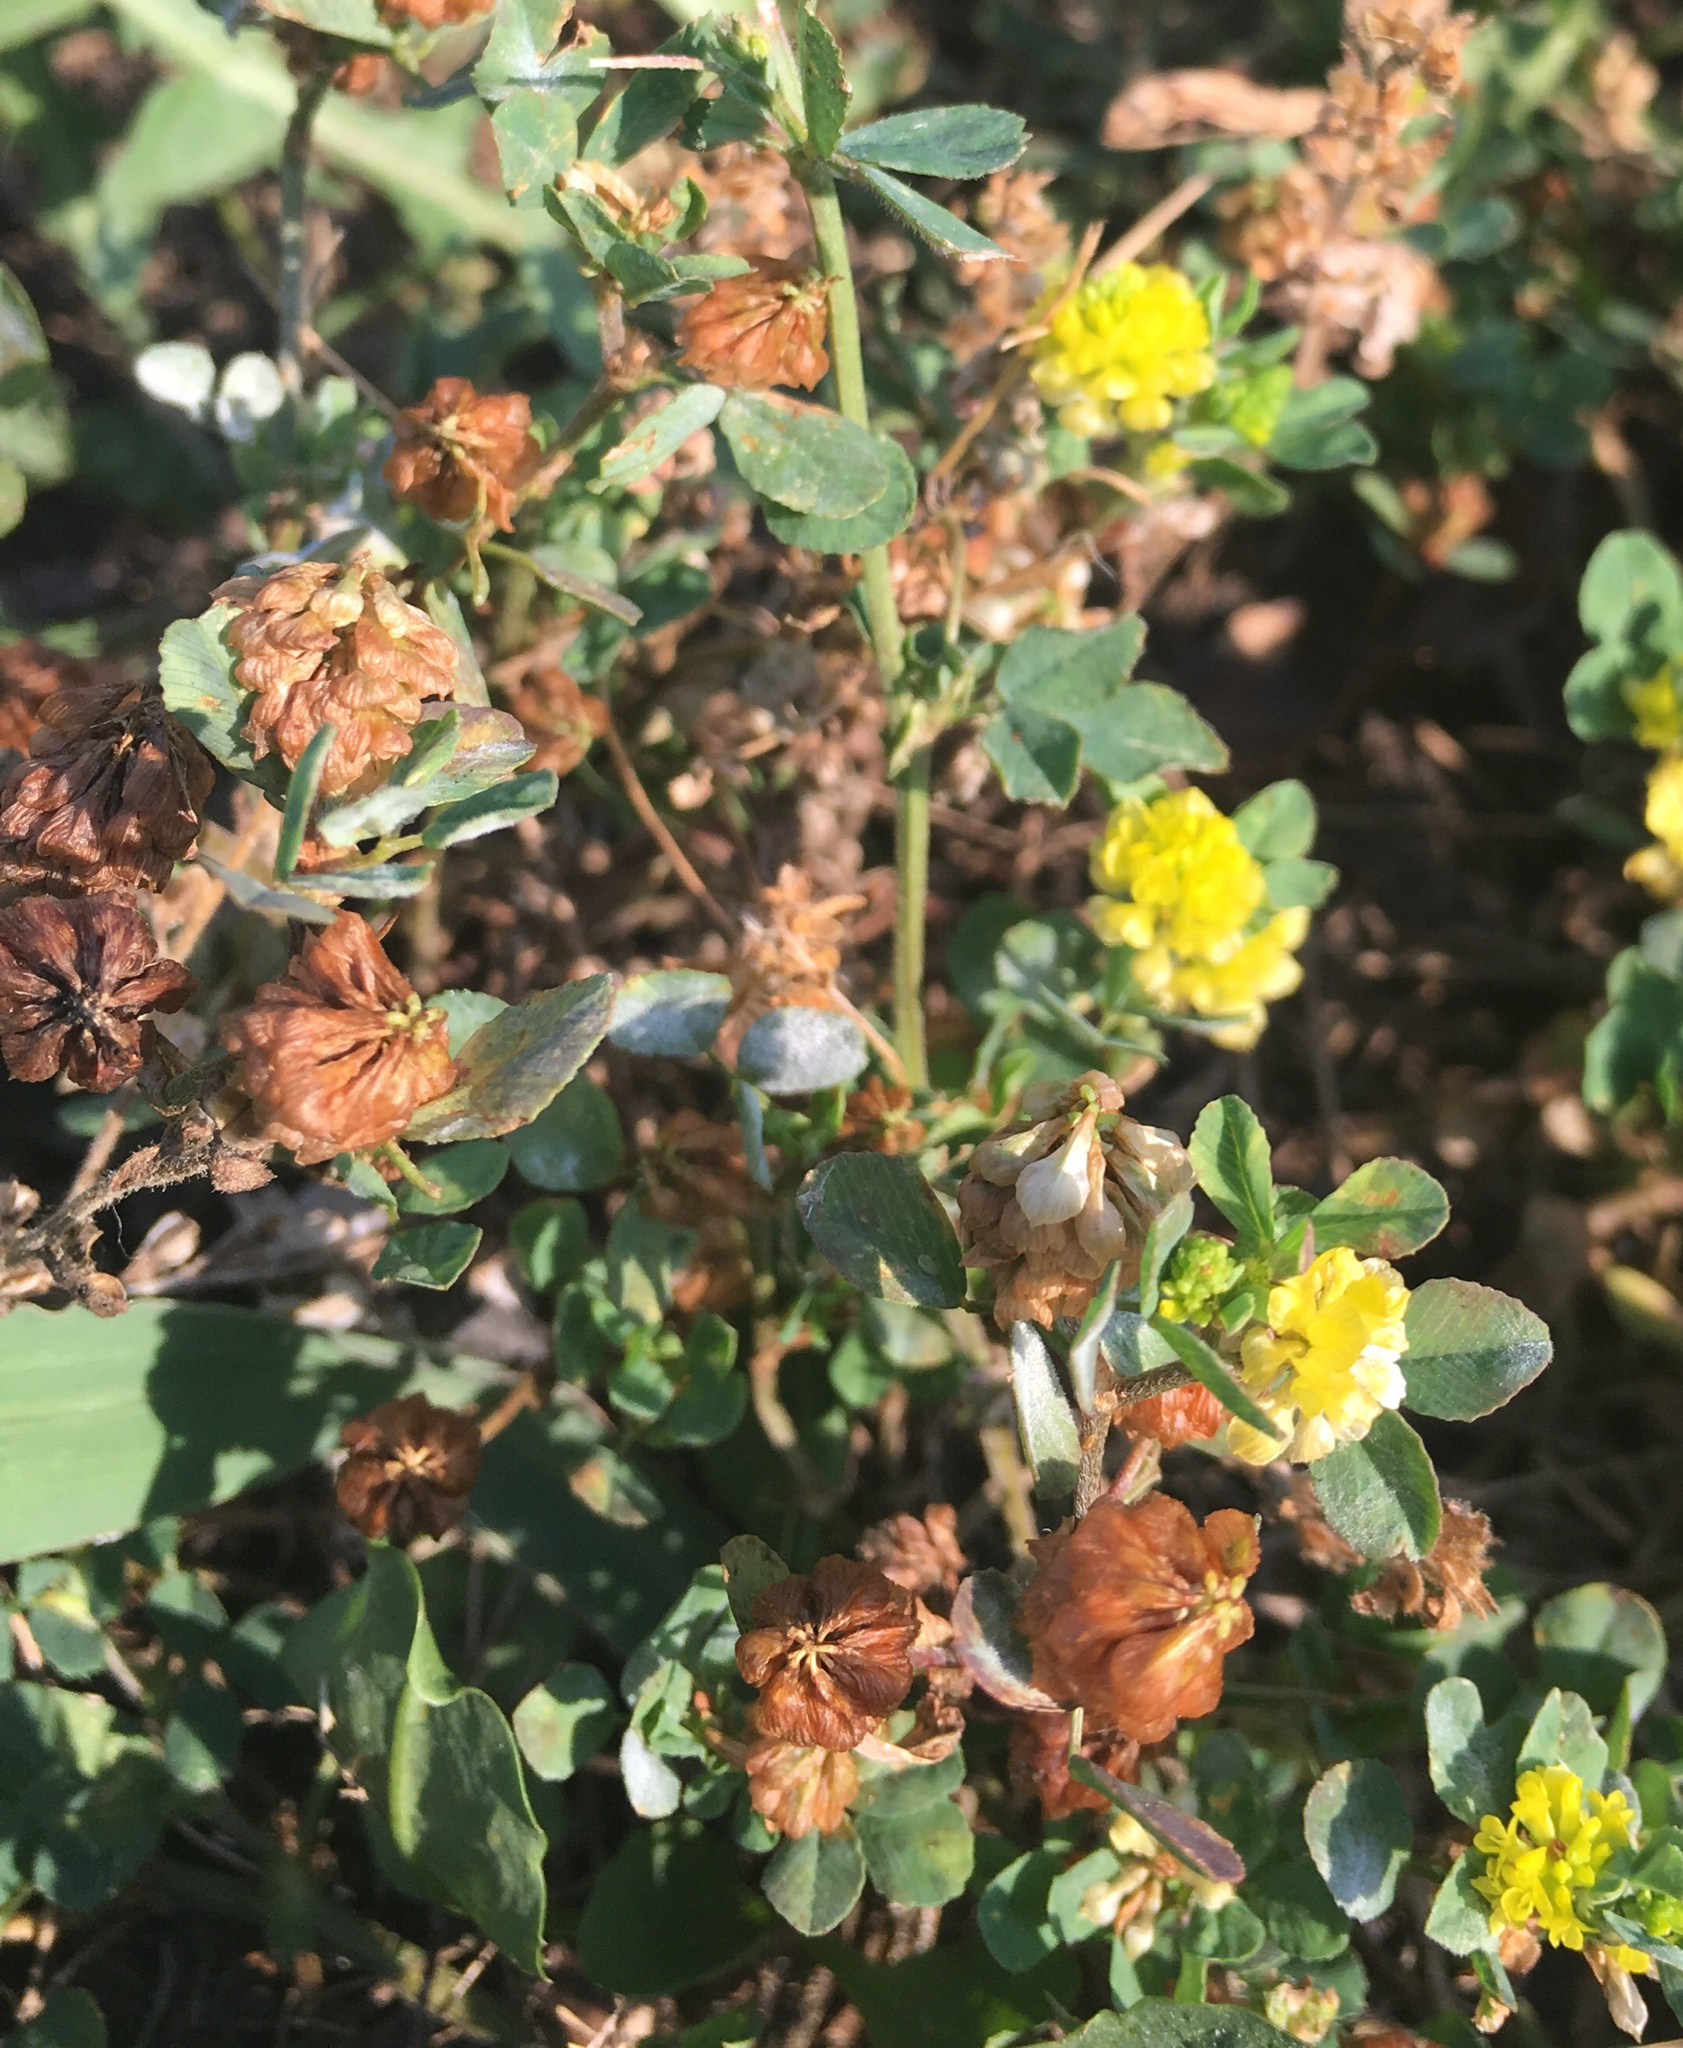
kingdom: Plantae
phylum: Tracheophyta
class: Magnoliopsida
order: Fabales
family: Fabaceae
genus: Trifolium
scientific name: Trifolium campestre
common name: Field clover
